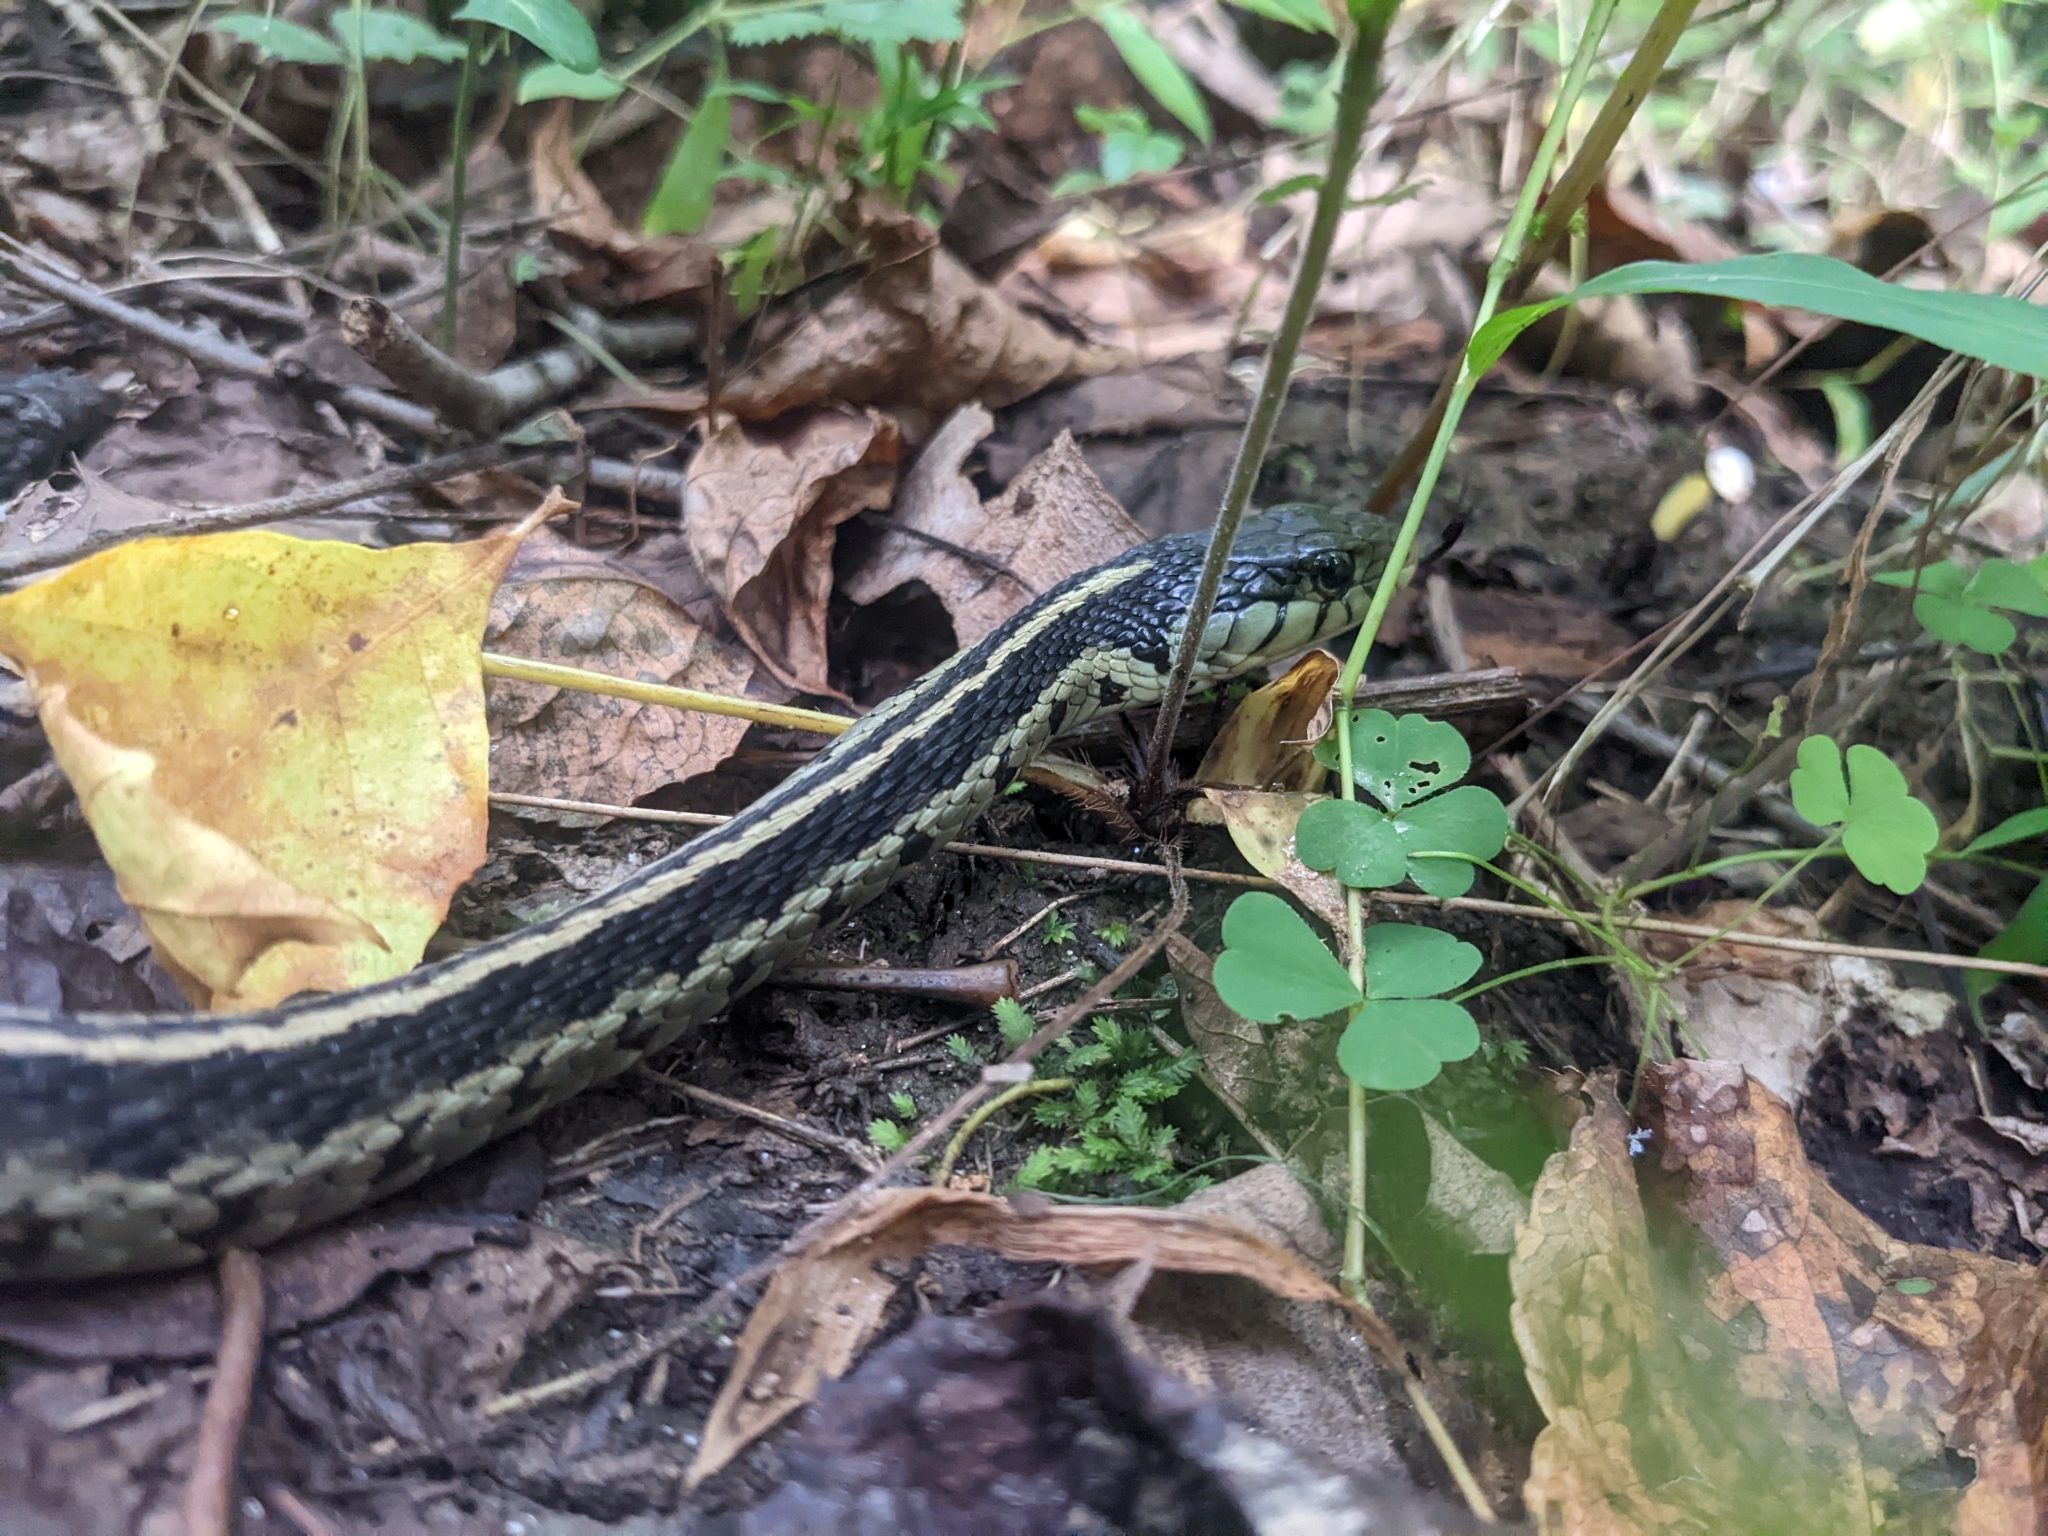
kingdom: Animalia
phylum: Chordata
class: Squamata
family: Colubridae
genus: Thamnophis
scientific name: Thamnophis sirtalis
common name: Common garter snake
